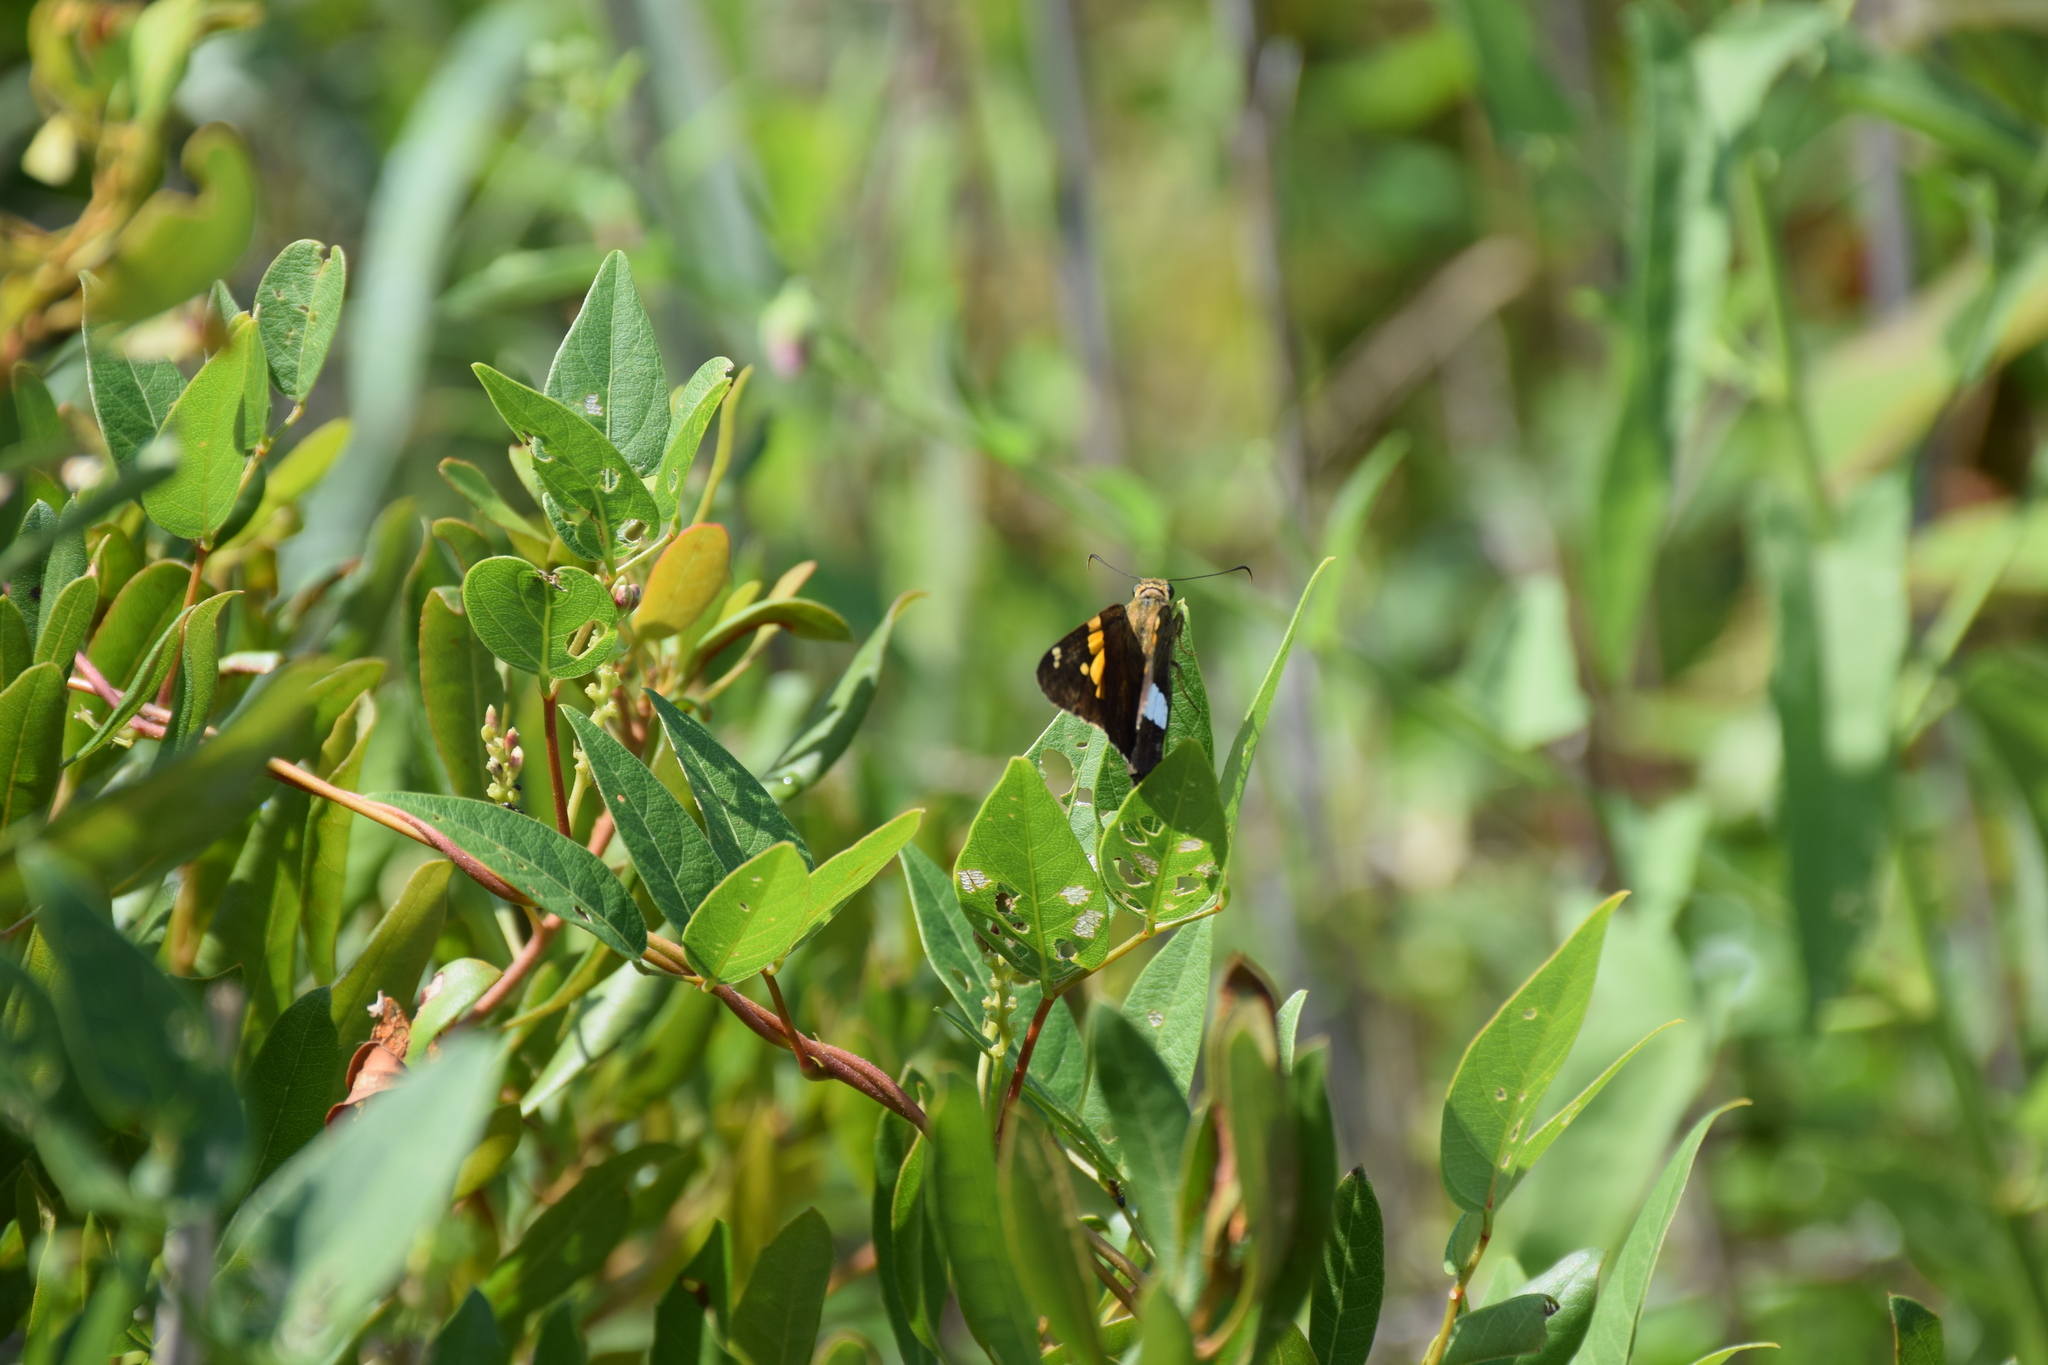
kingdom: Animalia
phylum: Arthropoda
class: Insecta
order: Lepidoptera
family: Hesperiidae
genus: Epargyreus
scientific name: Epargyreus clarus
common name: Silver-spotted skipper
